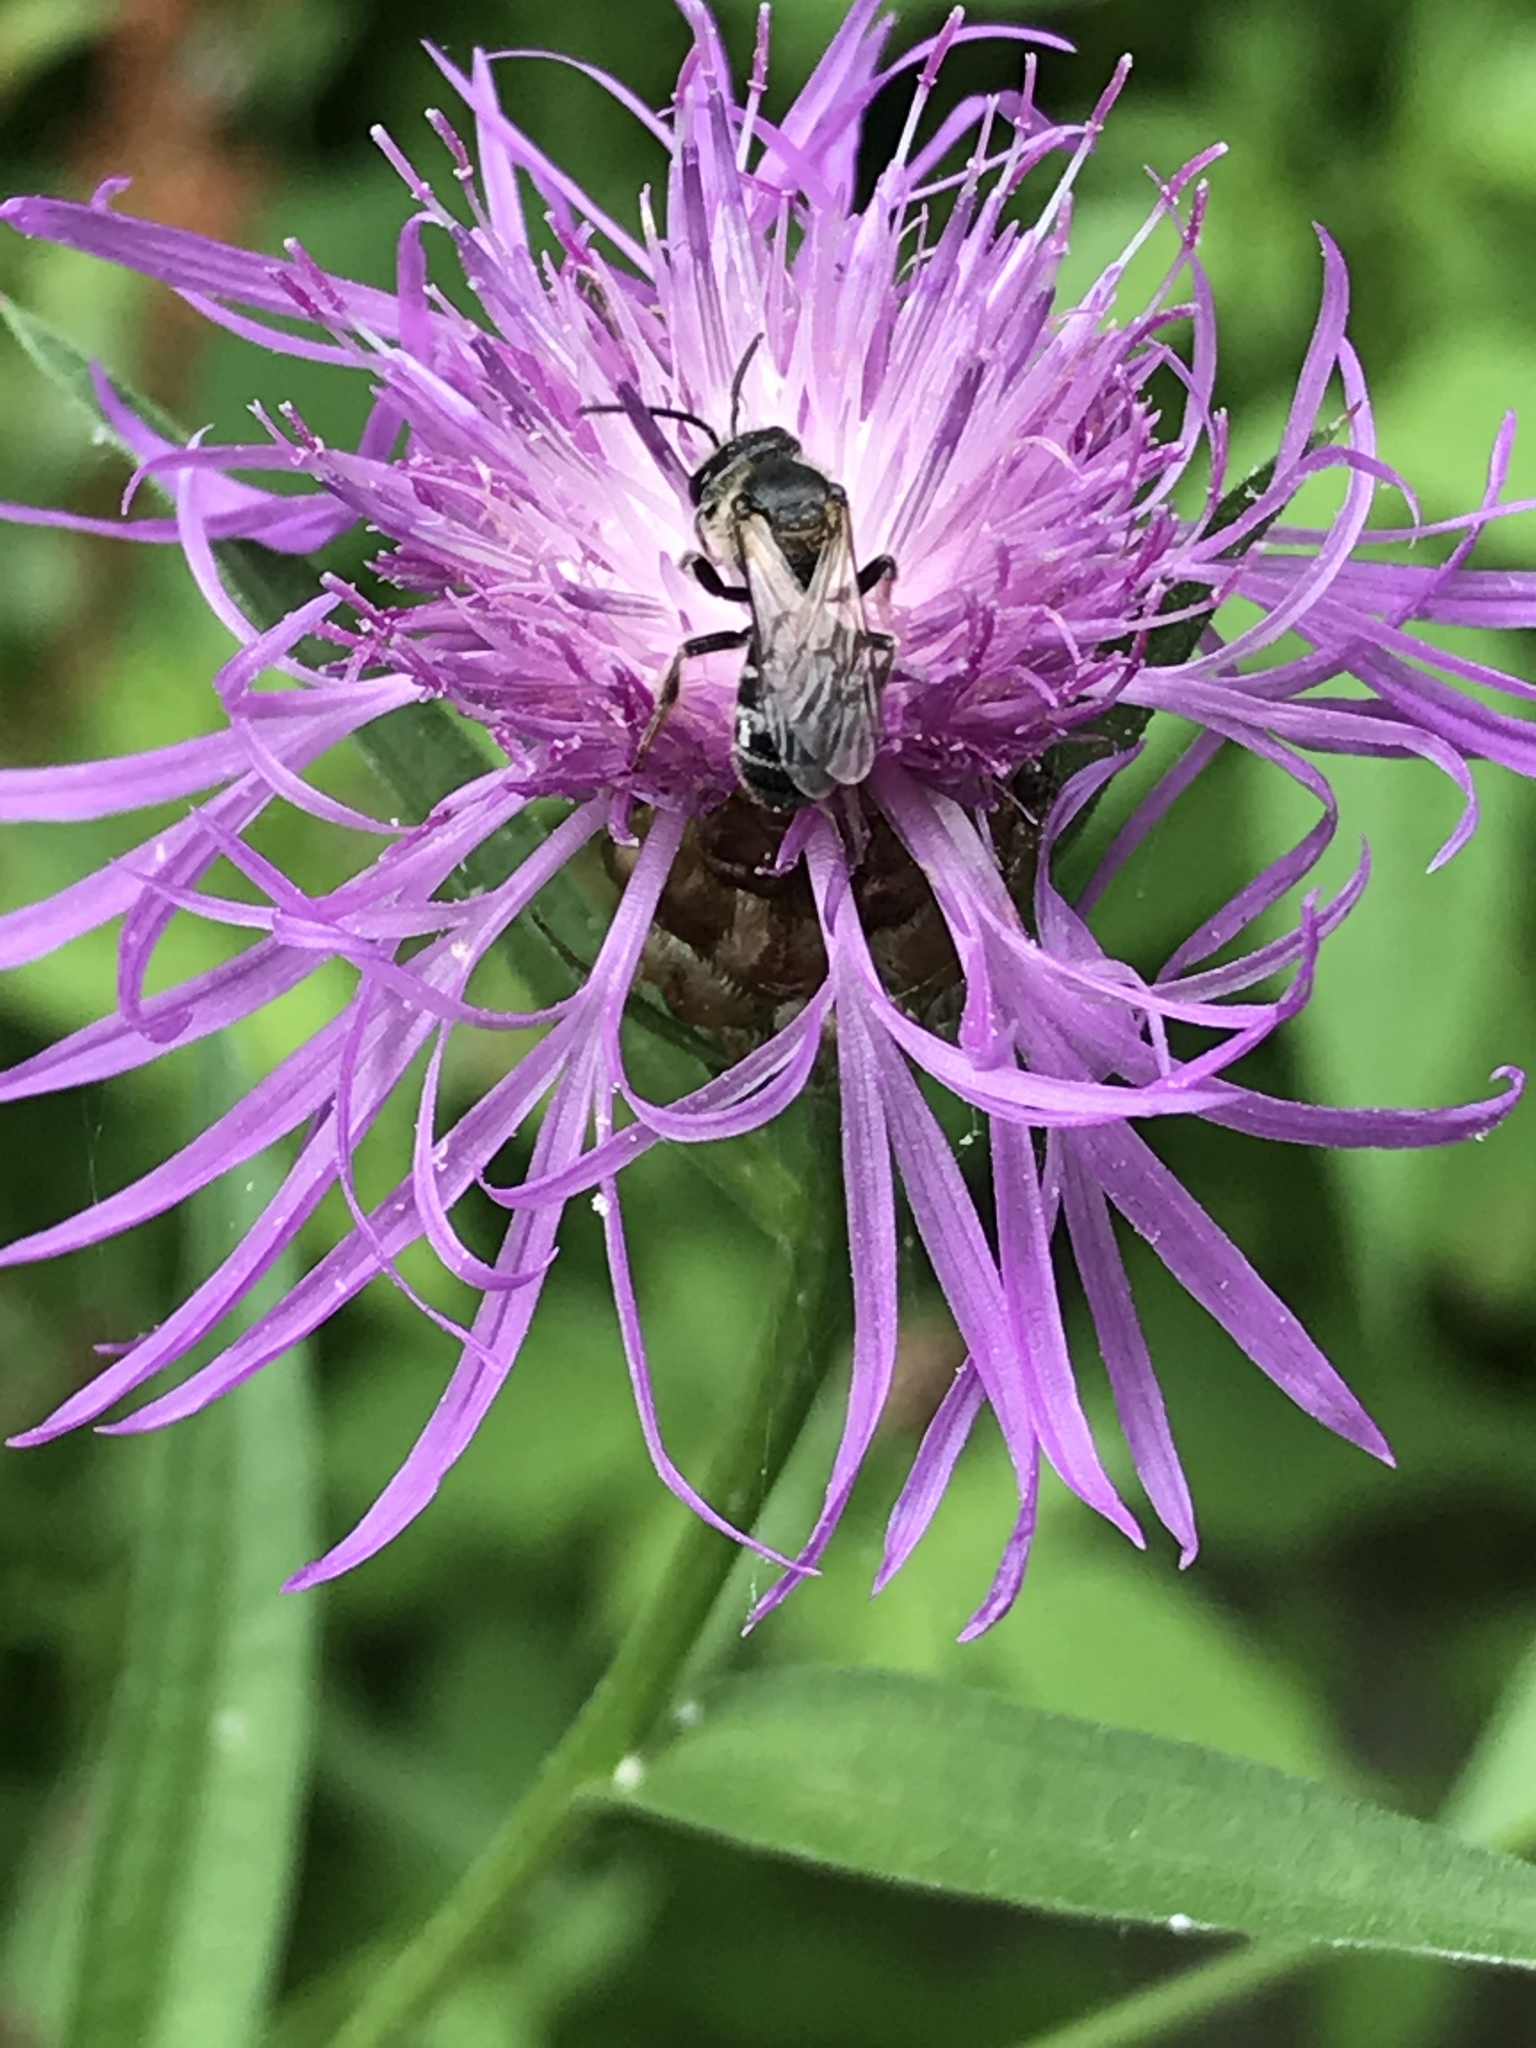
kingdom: Animalia
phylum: Arthropoda
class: Insecta
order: Hymenoptera
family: Halictidae
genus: Lasioglossum
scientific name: Lasioglossum zonulum
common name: Bull-headed furrow bee
